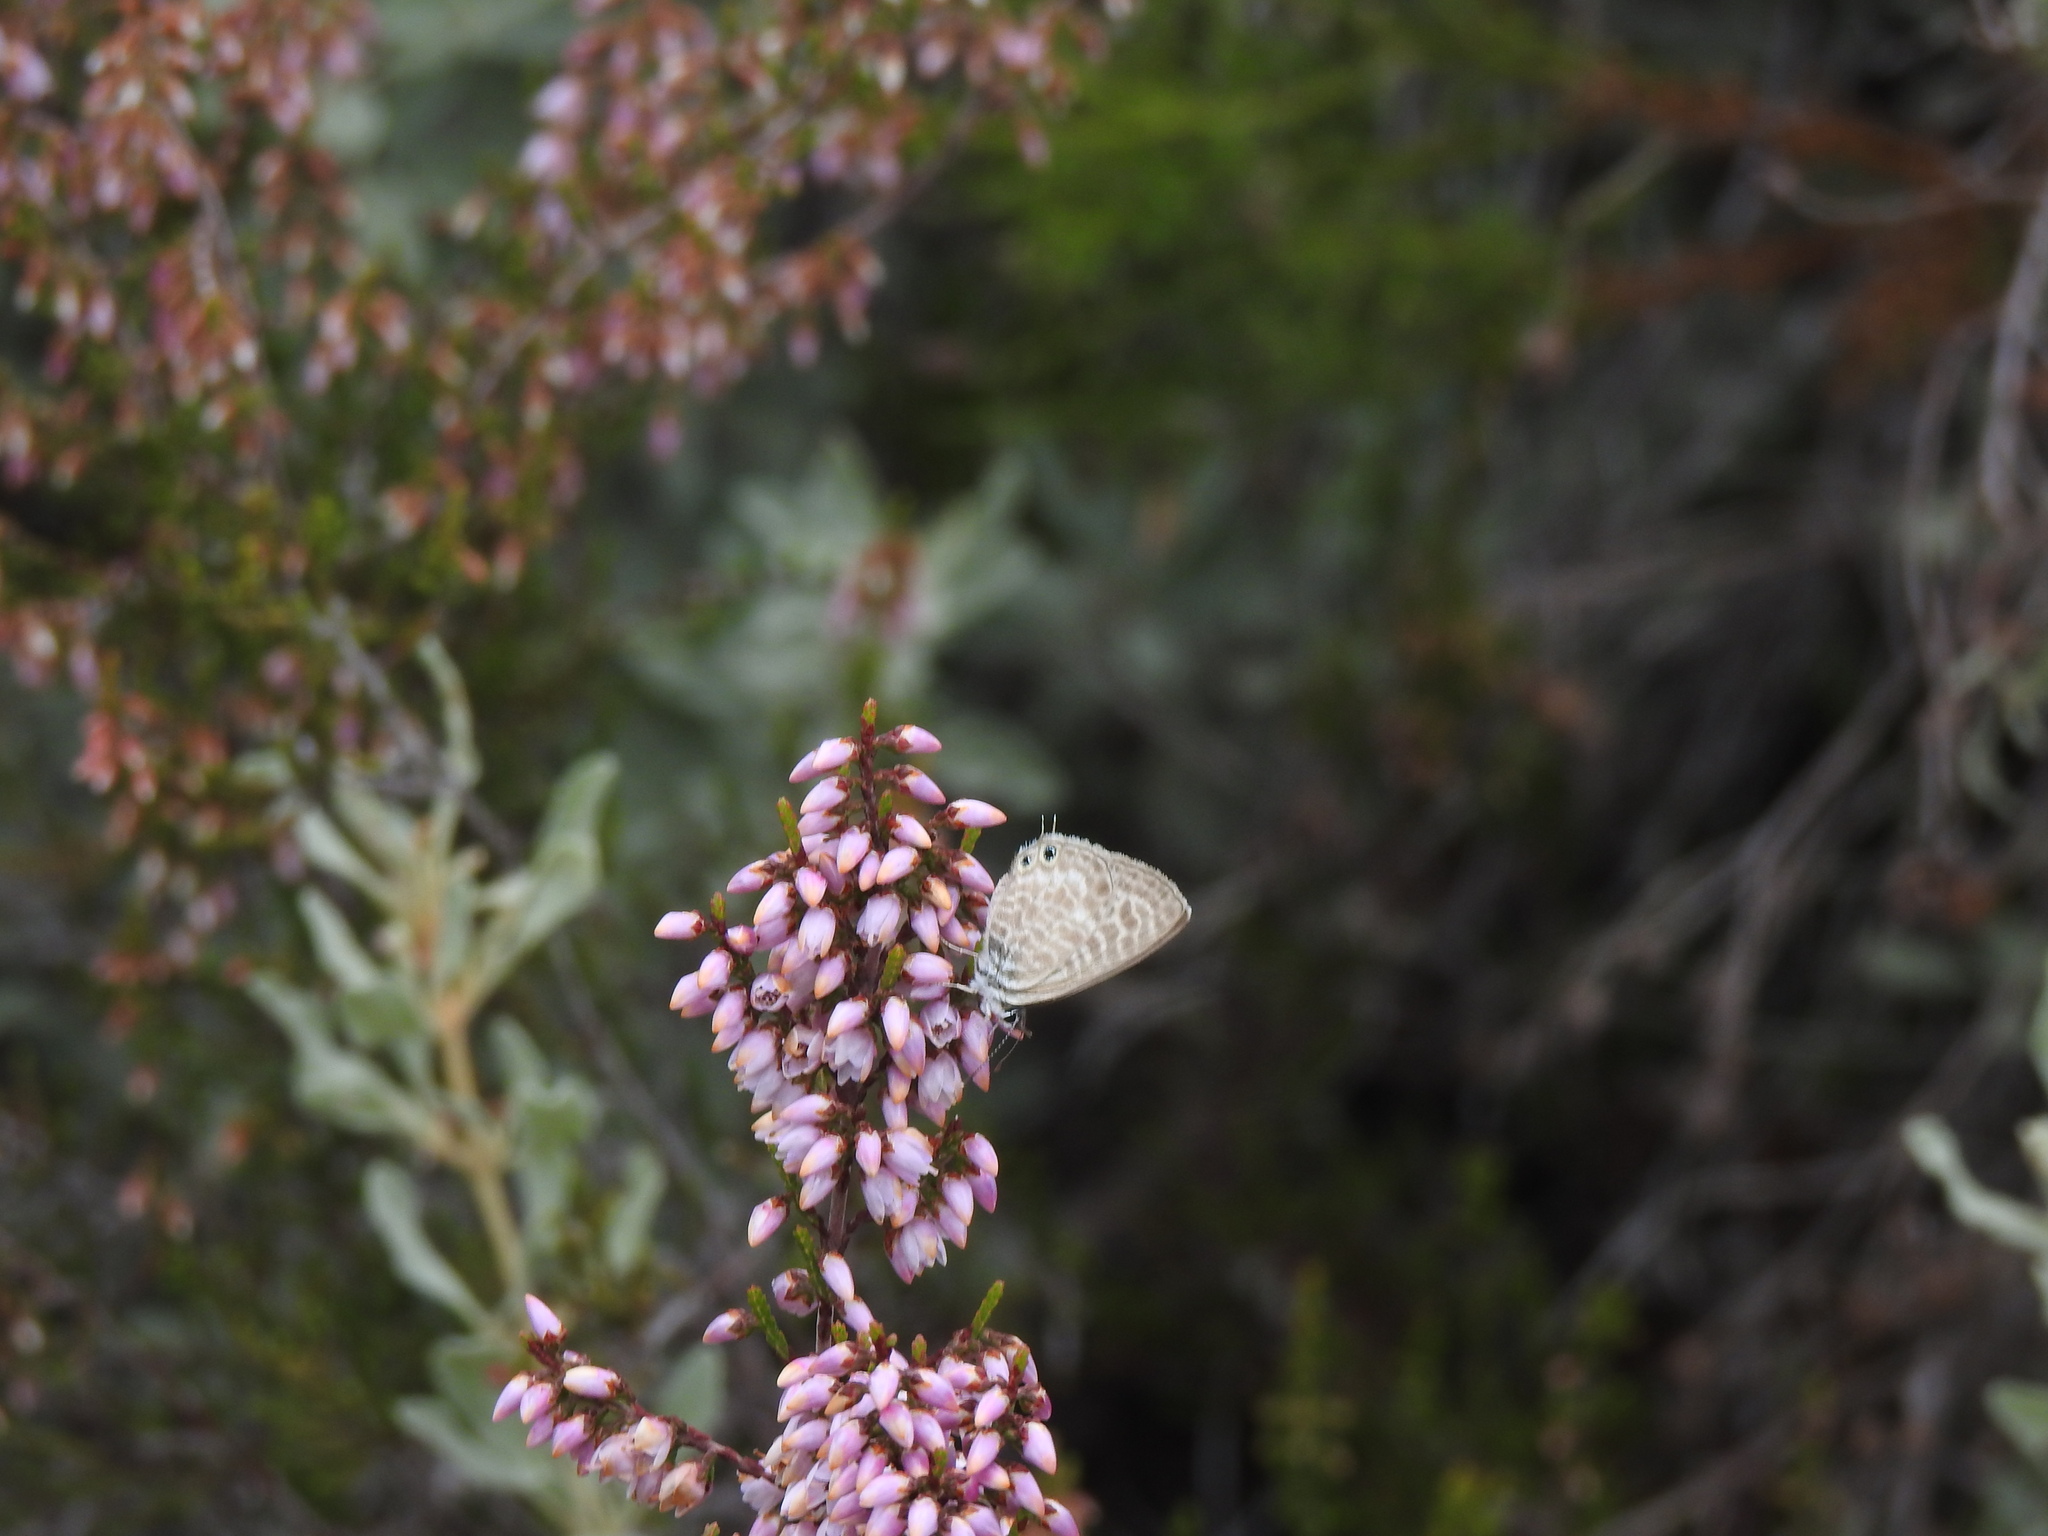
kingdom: Animalia
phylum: Arthropoda
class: Insecta
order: Lepidoptera
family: Lycaenidae
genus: Leptotes
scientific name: Leptotes pirithous
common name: Lang's short-tailed blue
